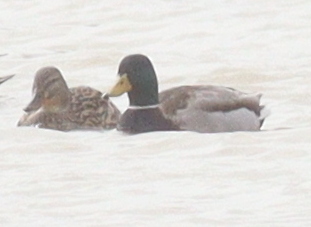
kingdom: Animalia
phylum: Chordata
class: Aves
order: Anseriformes
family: Anatidae
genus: Anas
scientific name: Anas platyrhynchos
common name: Mallard
